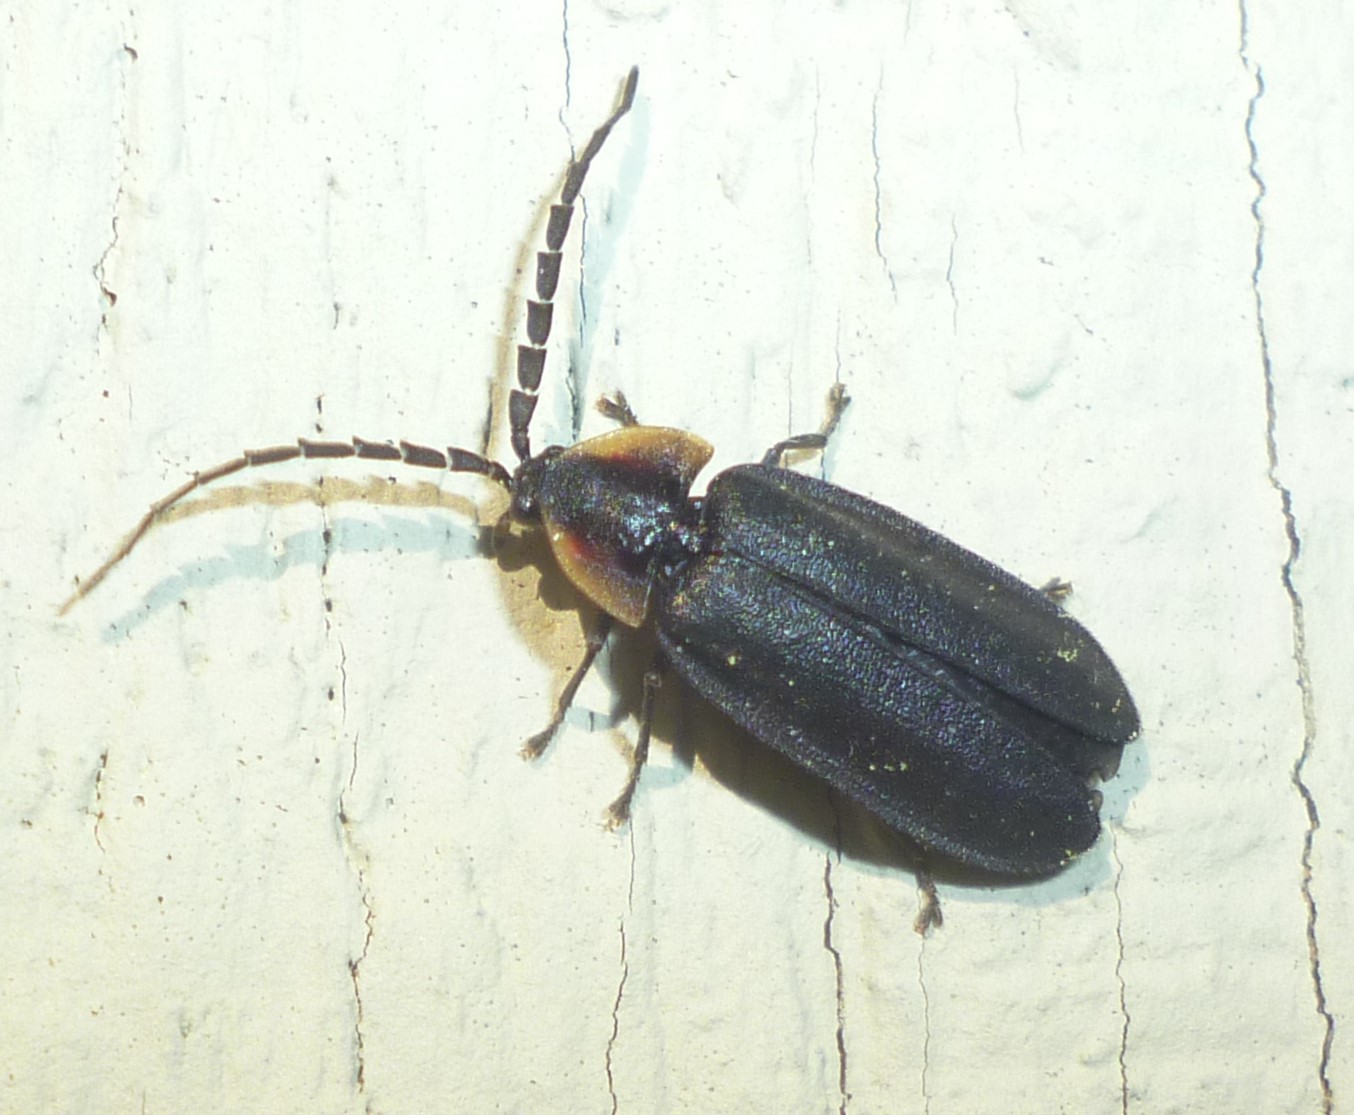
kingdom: Animalia
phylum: Arthropoda
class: Insecta
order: Coleoptera
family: Lampyridae
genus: Lucidota
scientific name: Lucidota atra
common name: Black firefly
